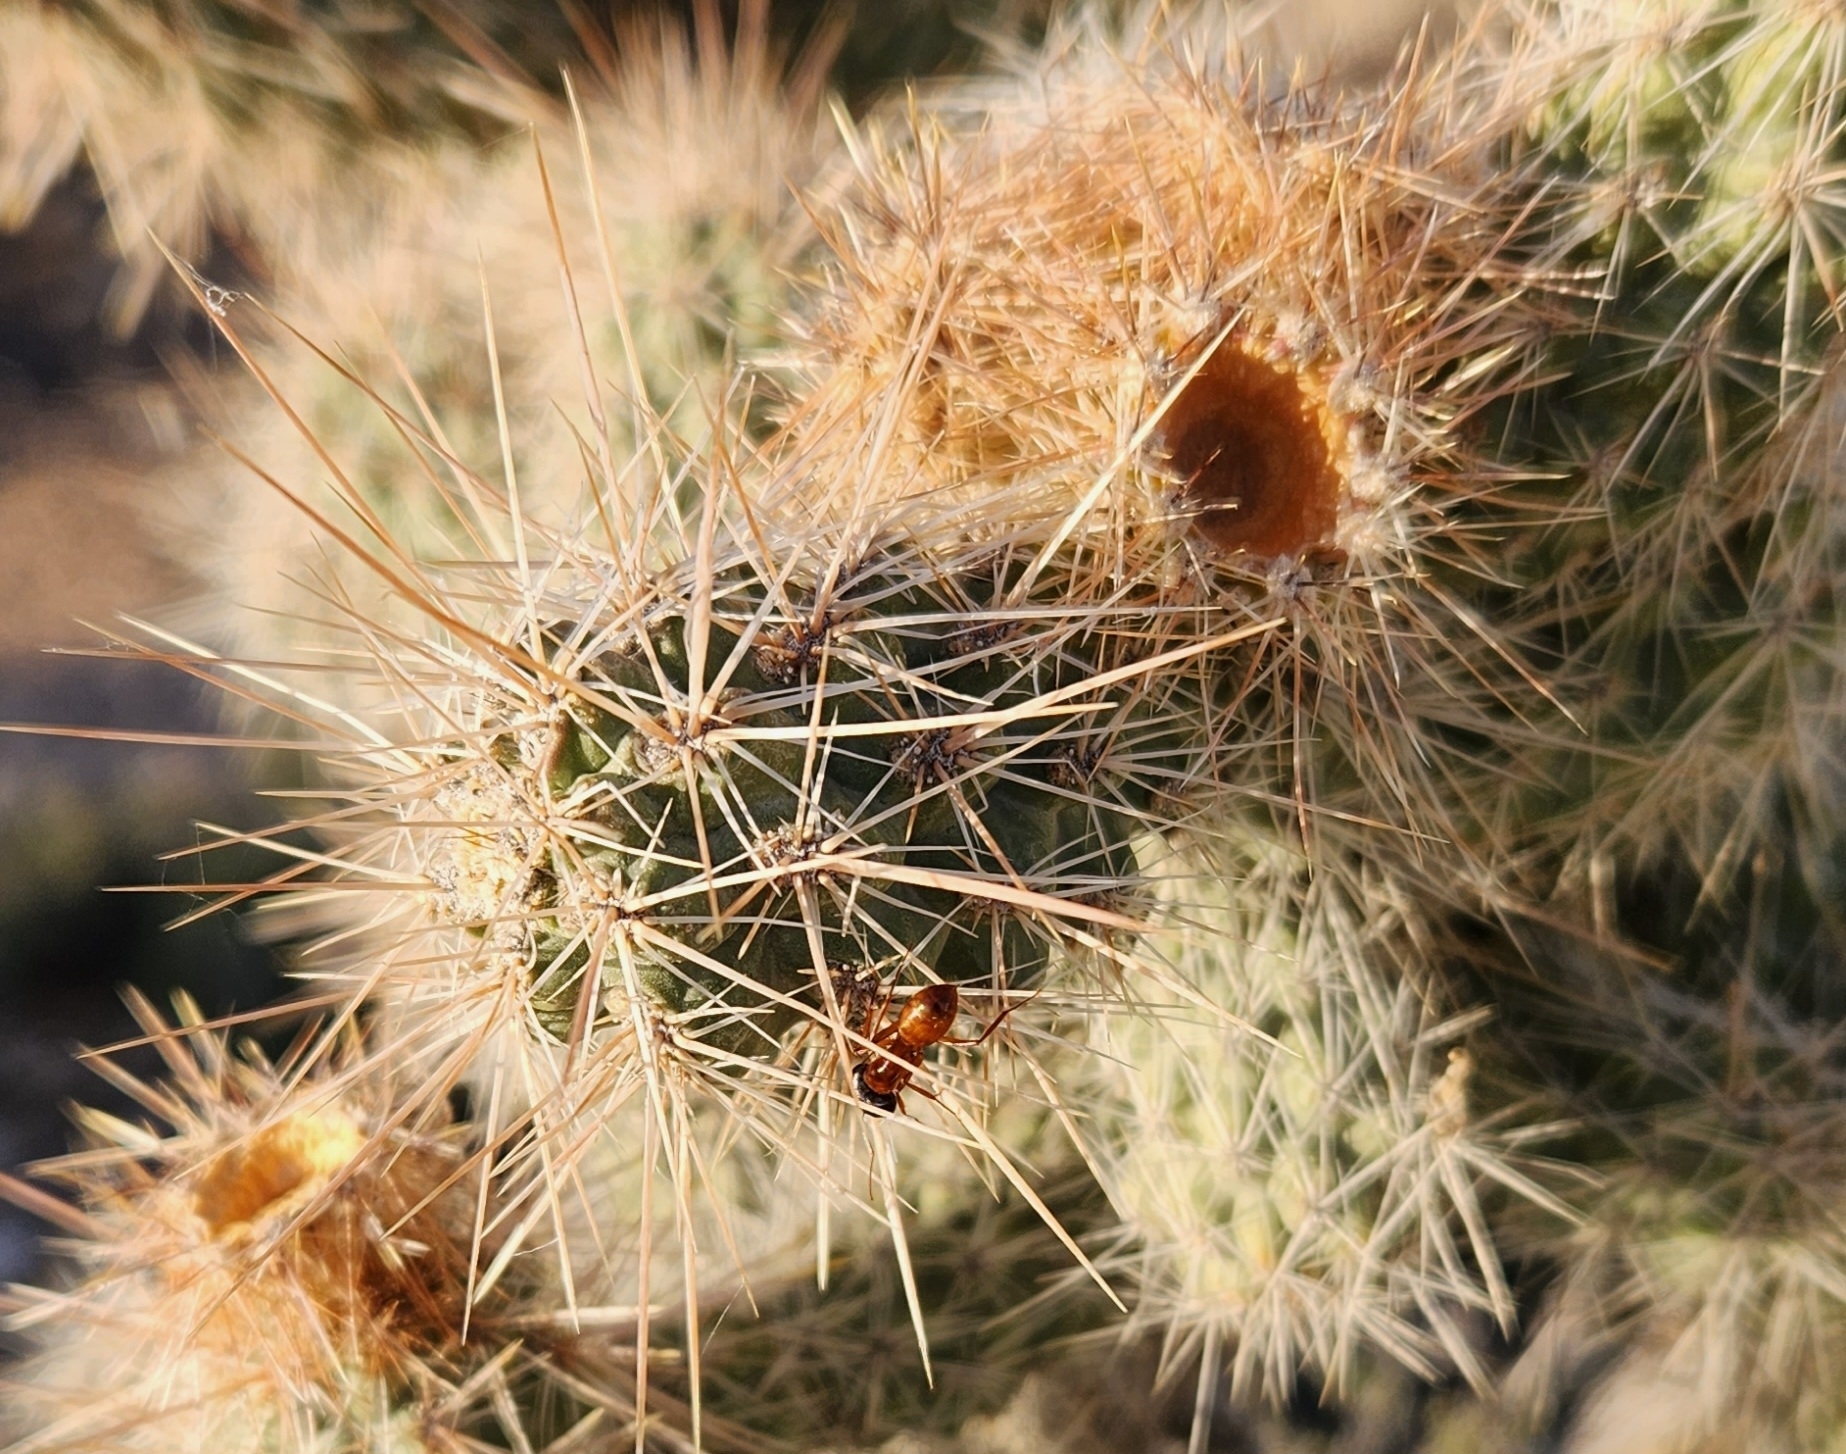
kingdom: Plantae
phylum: Tracheophyta
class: Magnoliopsida
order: Caryophyllales
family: Cactaceae
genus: Cylindropuntia
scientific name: Cylindropuntia echinocarpa
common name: Ground cholla
